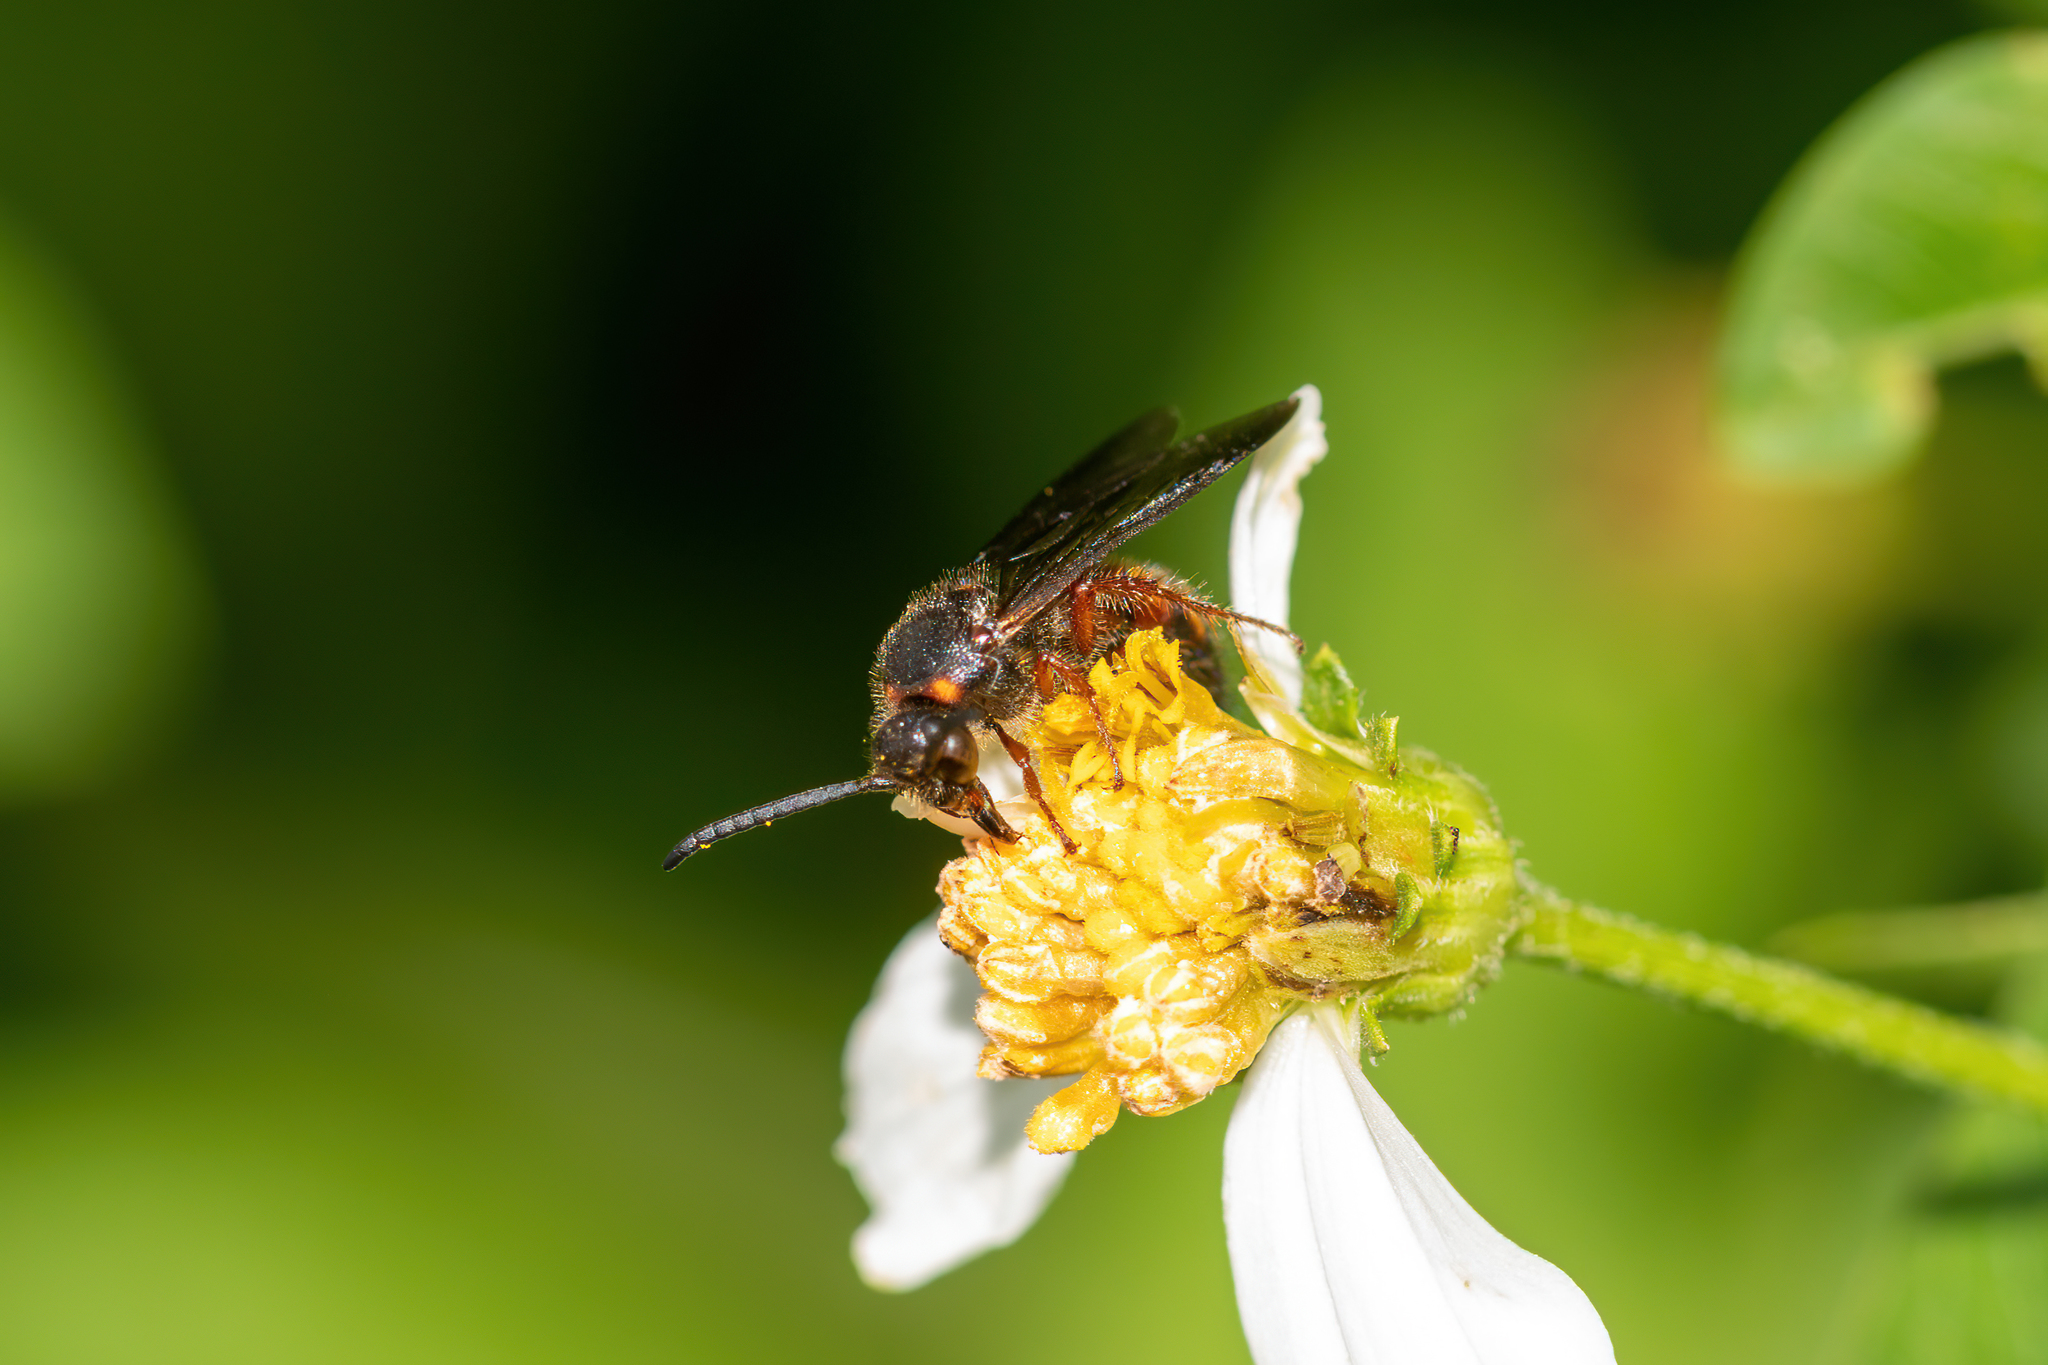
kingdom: Animalia
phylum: Arthropoda
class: Insecta
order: Hymenoptera
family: Scoliidae
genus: Scolia
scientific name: Scolia nobilitata
